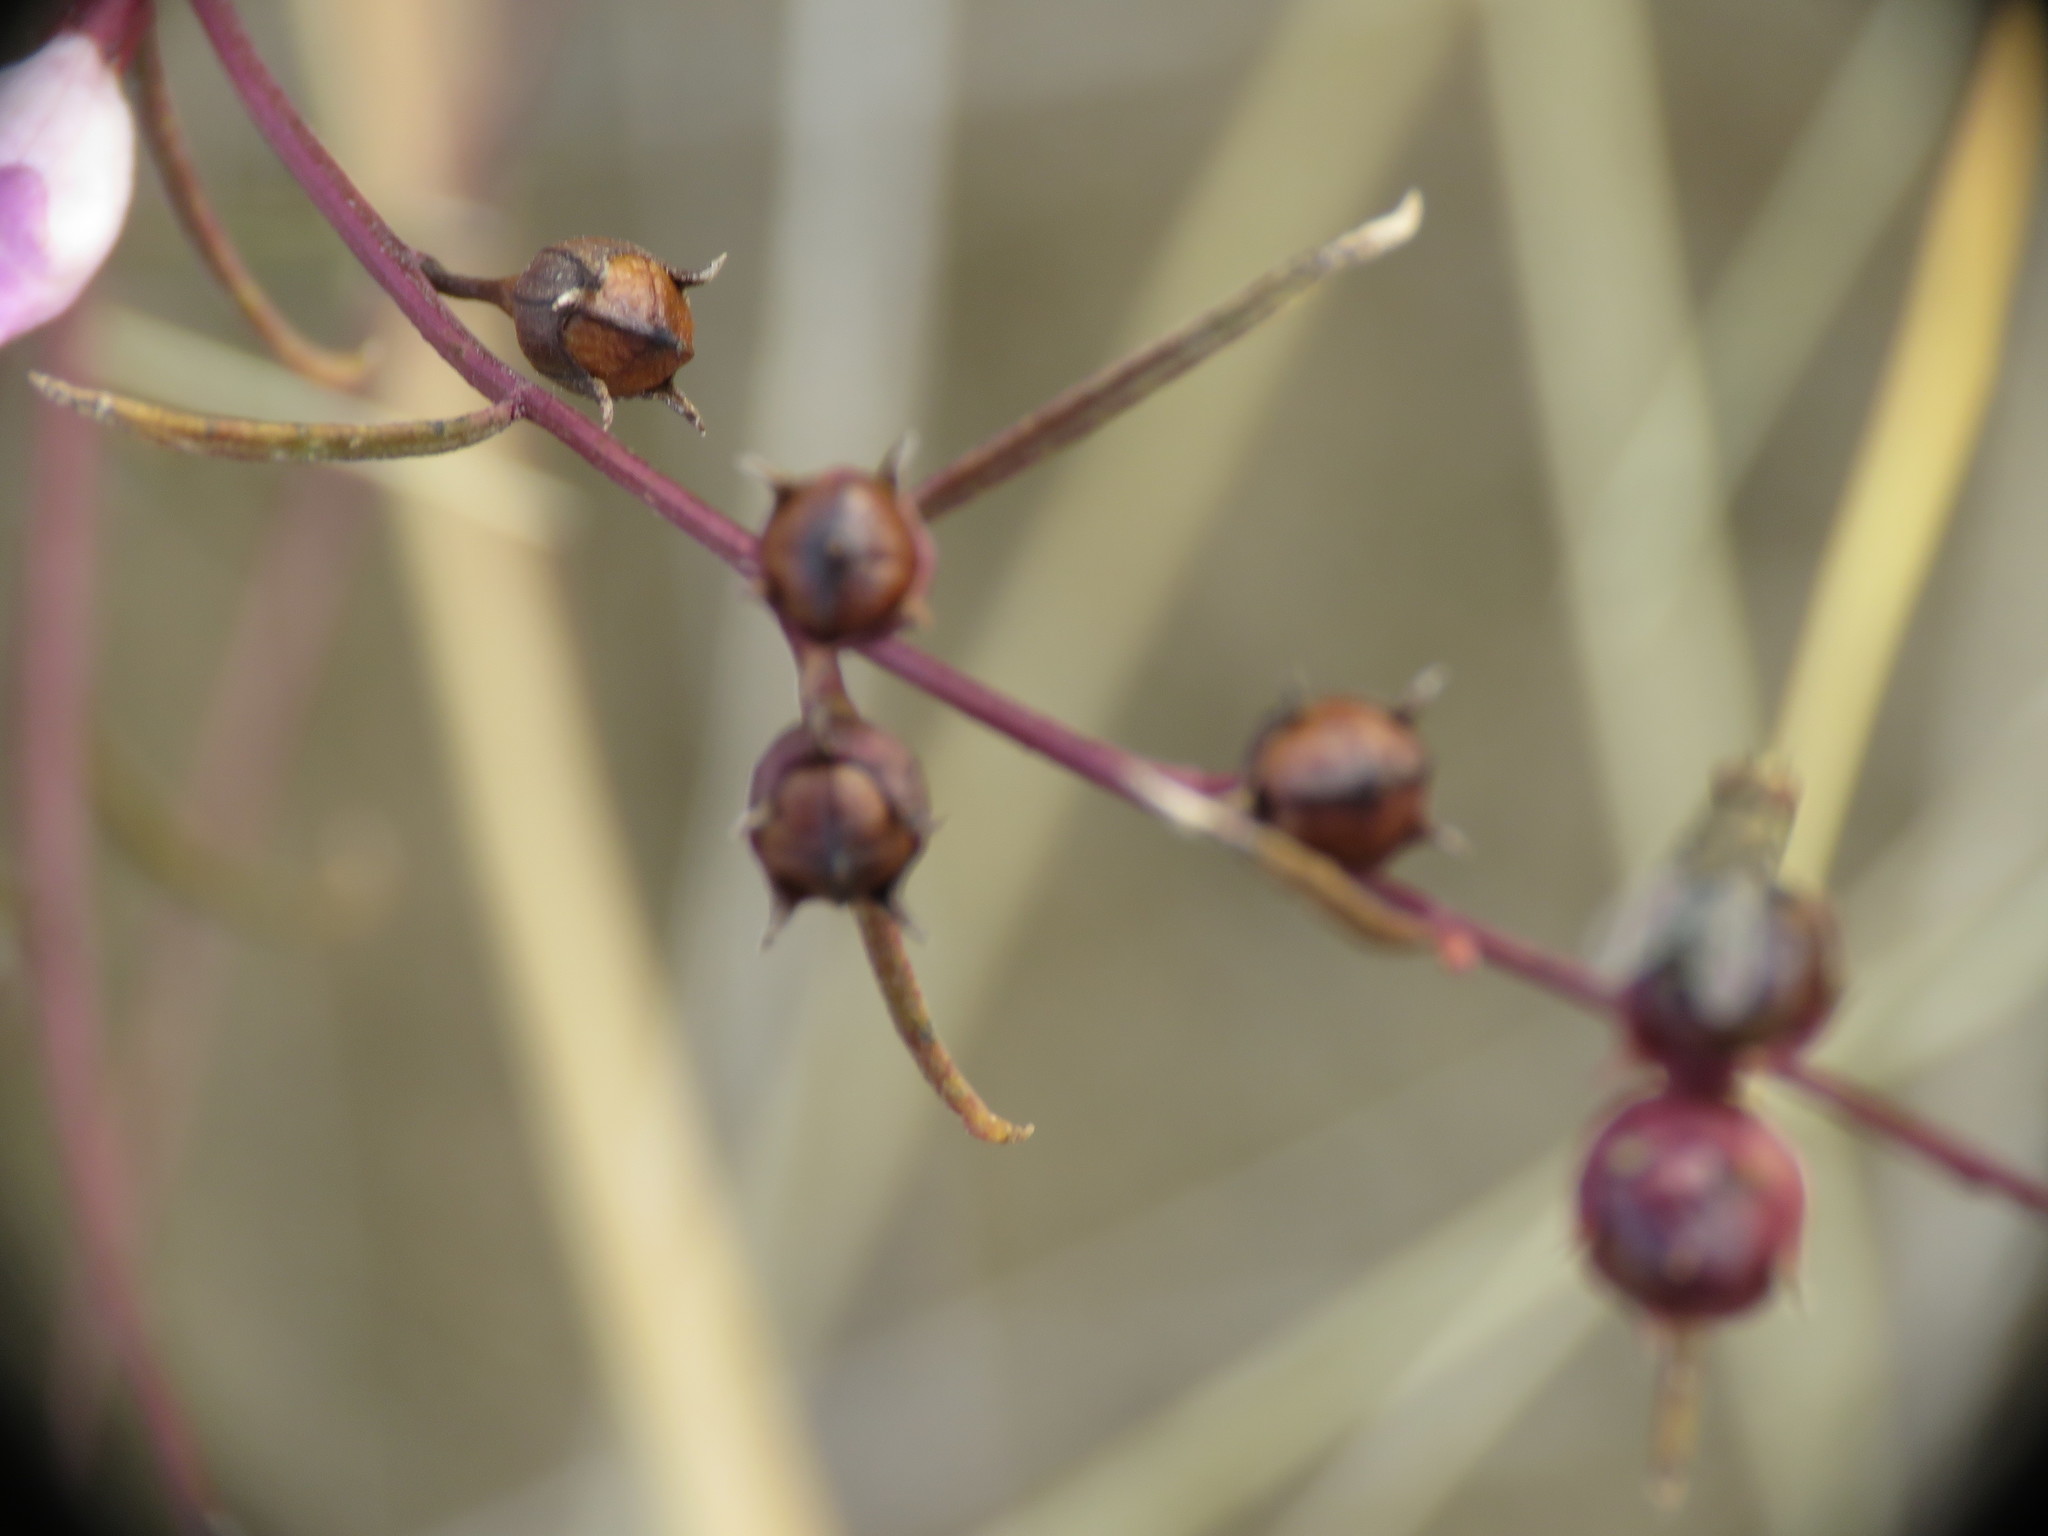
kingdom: Plantae
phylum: Tracheophyta
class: Magnoliopsida
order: Lamiales
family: Orobanchaceae
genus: Agalinis
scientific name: Agalinis purpurea
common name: Purple false foxglove
